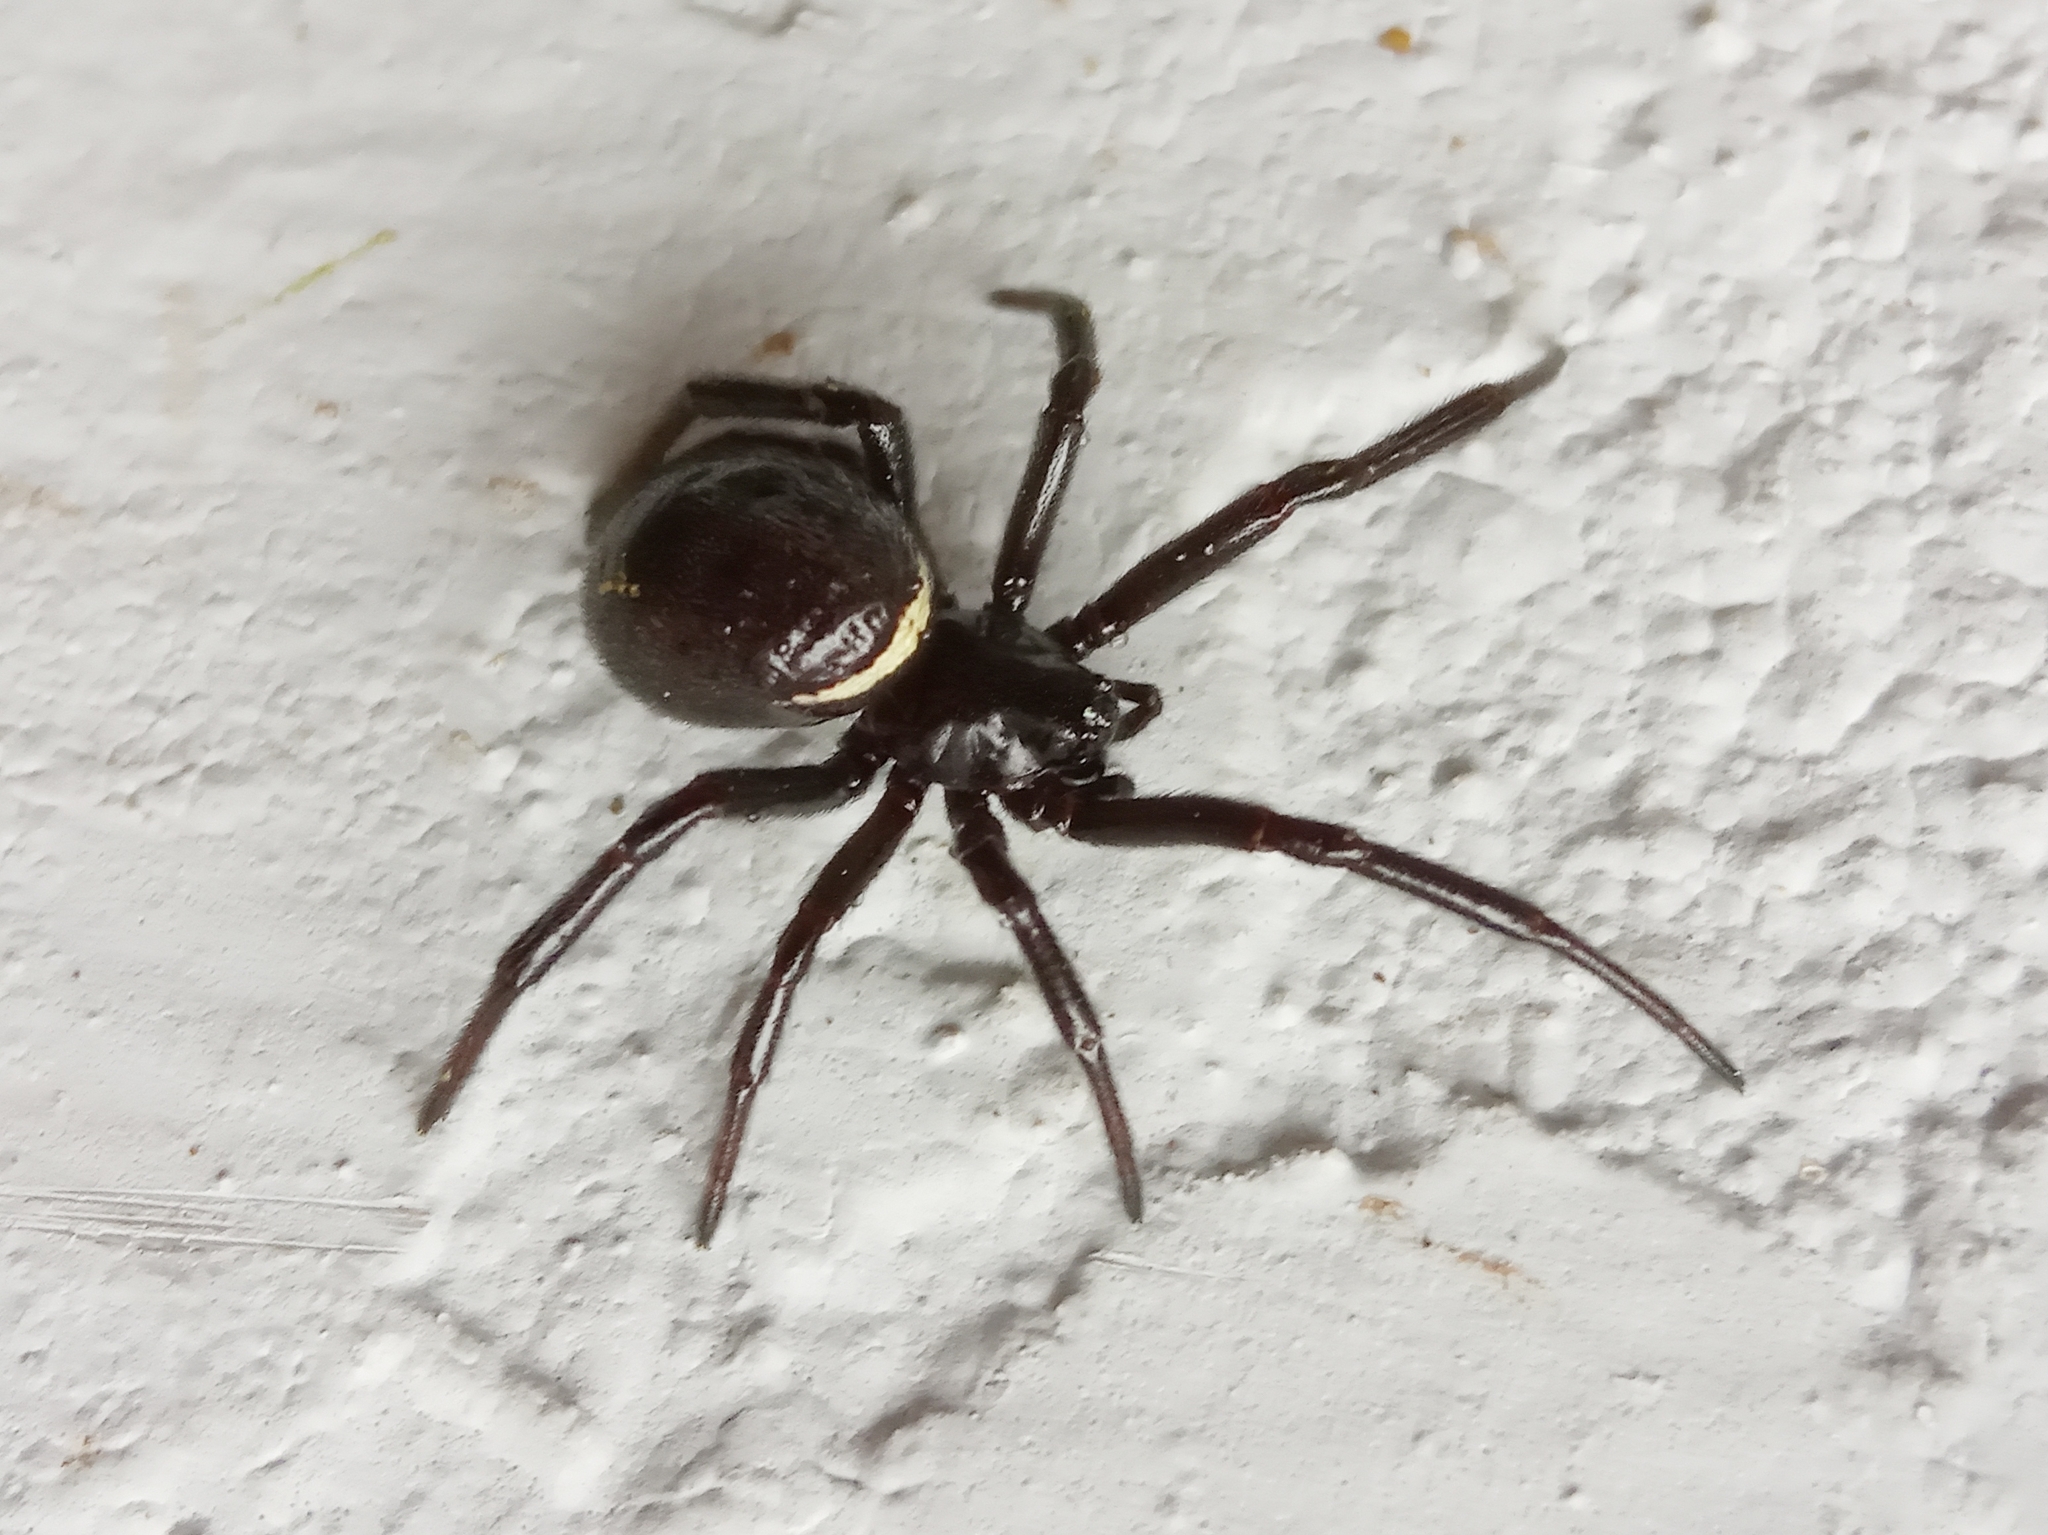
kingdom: Animalia
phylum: Arthropoda
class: Arachnida
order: Araneae
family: Theridiidae
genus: Steatoda
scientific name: Steatoda paykulliana
